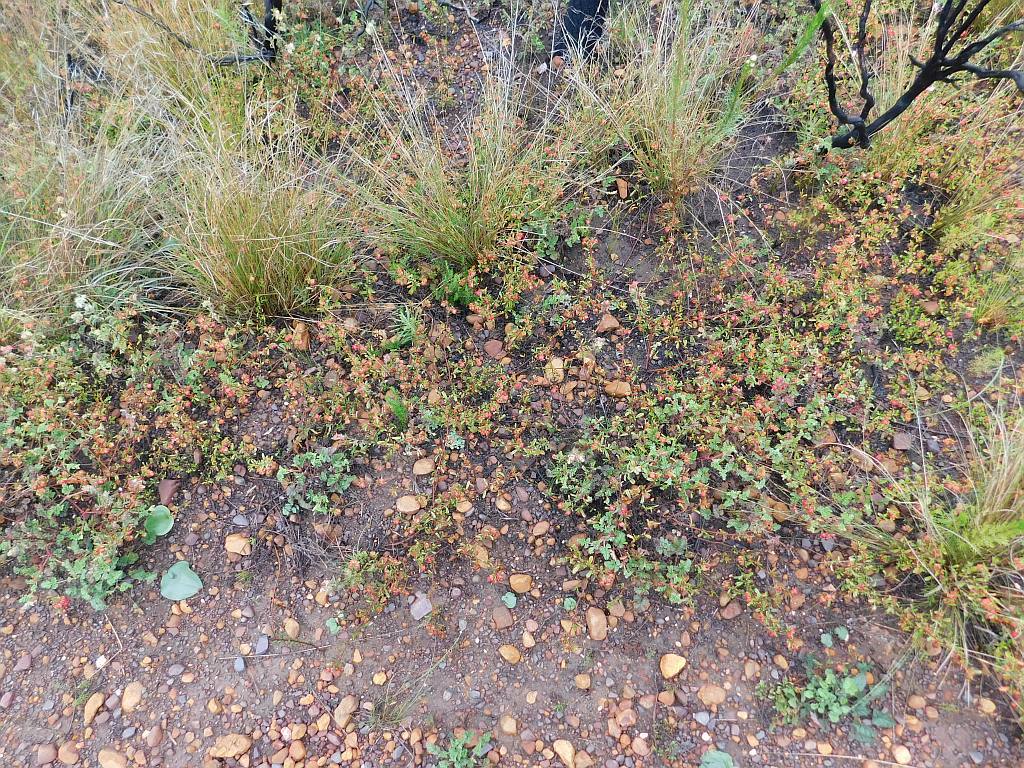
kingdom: Plantae
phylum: Tracheophyta
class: Magnoliopsida
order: Malvales
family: Malvaceae
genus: Hermannia
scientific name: Hermannia angularis
